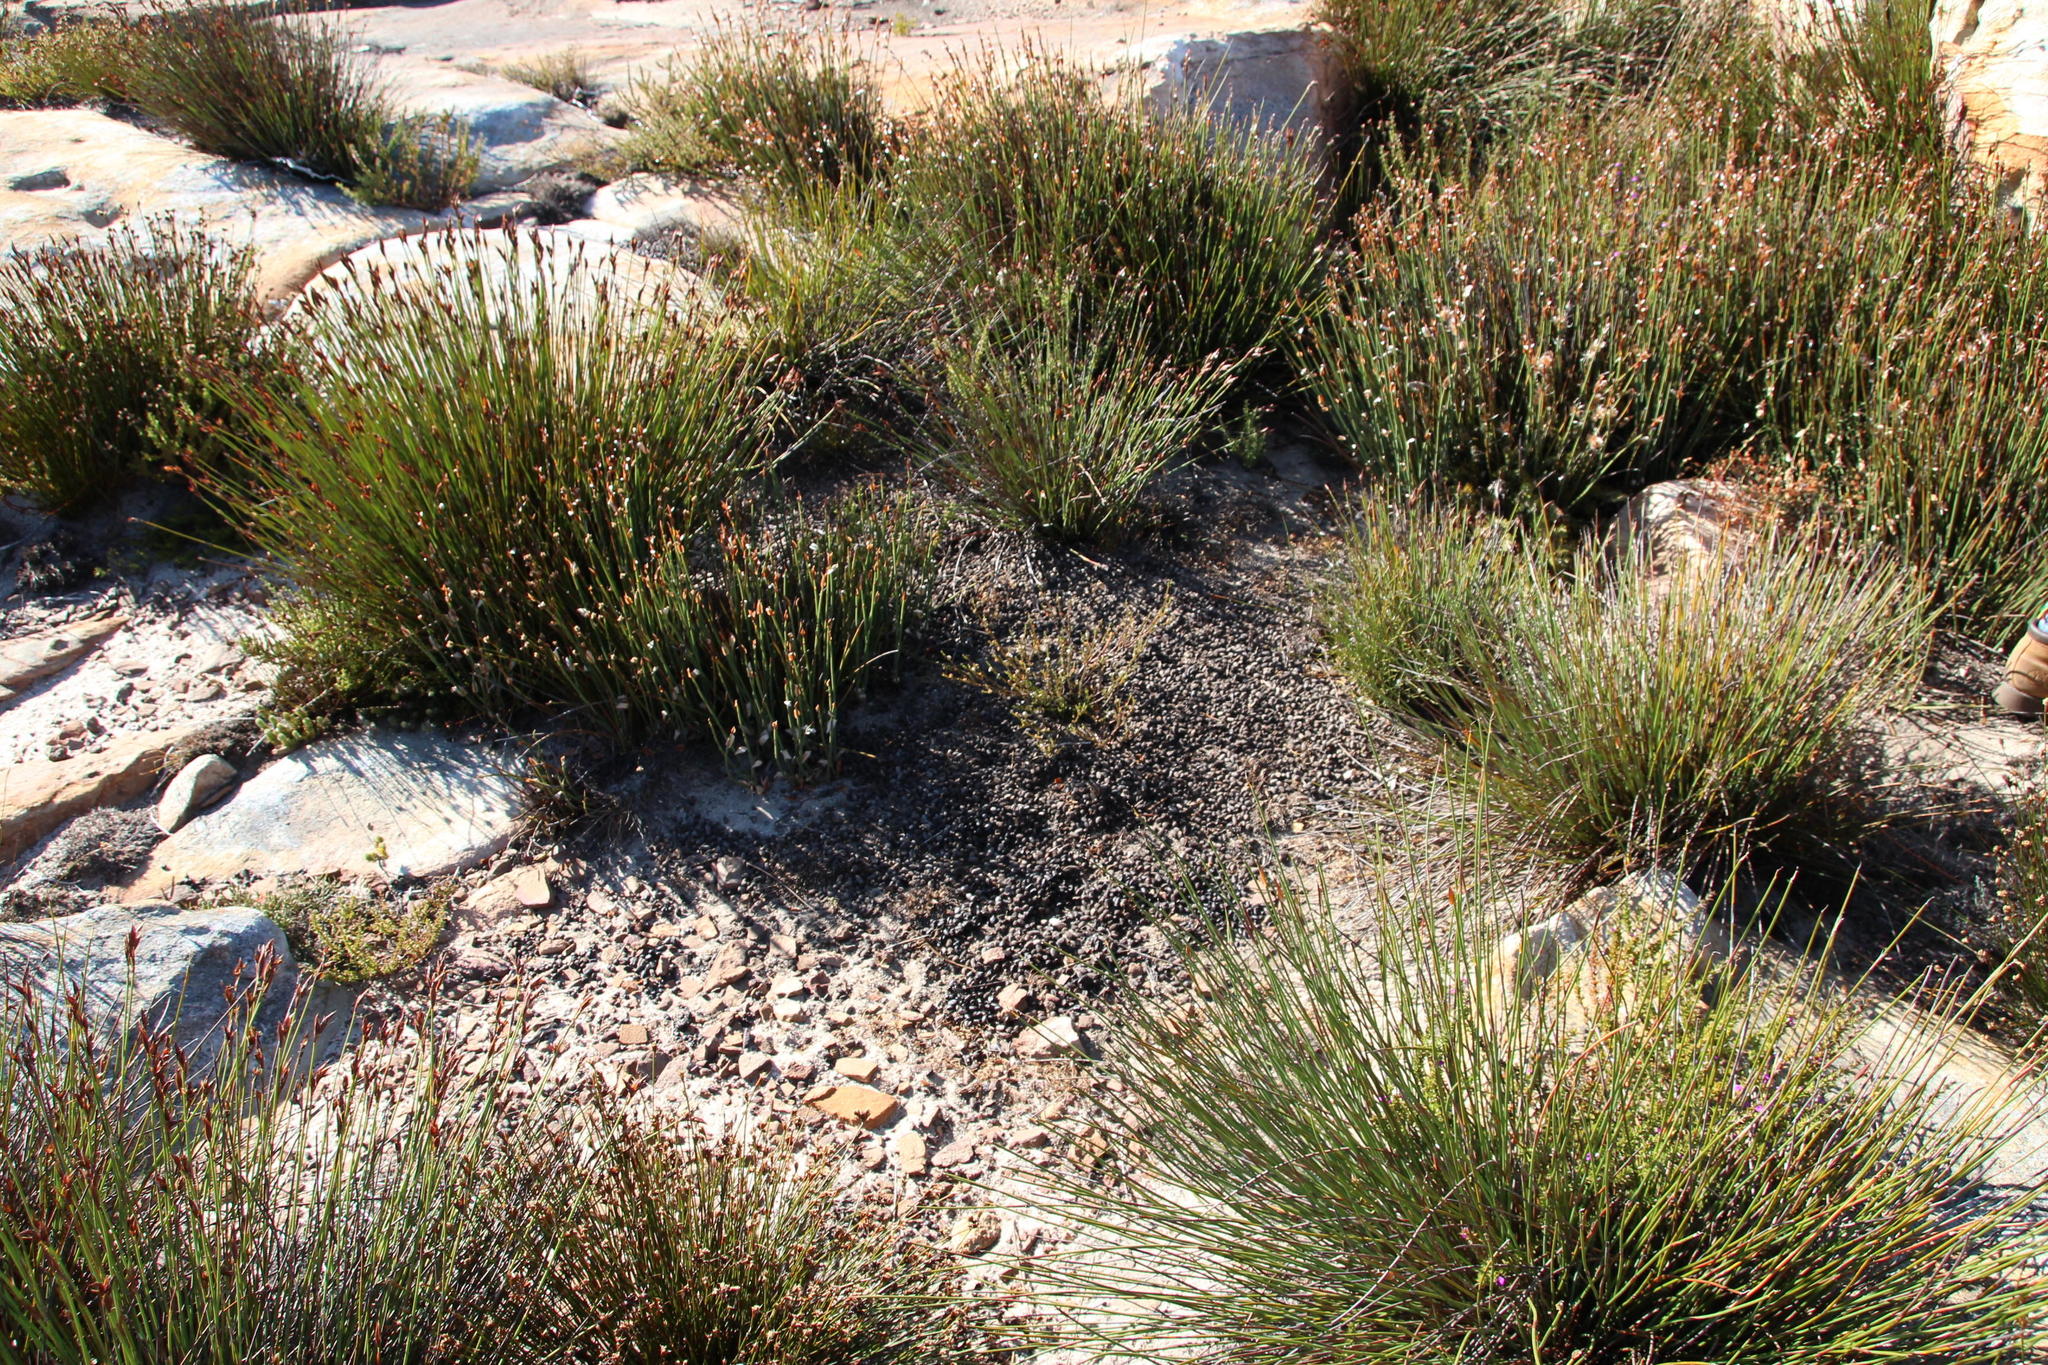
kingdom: Animalia
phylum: Chordata
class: Mammalia
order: Artiodactyla
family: Bovidae
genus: Oreotragus
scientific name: Oreotragus oreotragus
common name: Klipspringer
